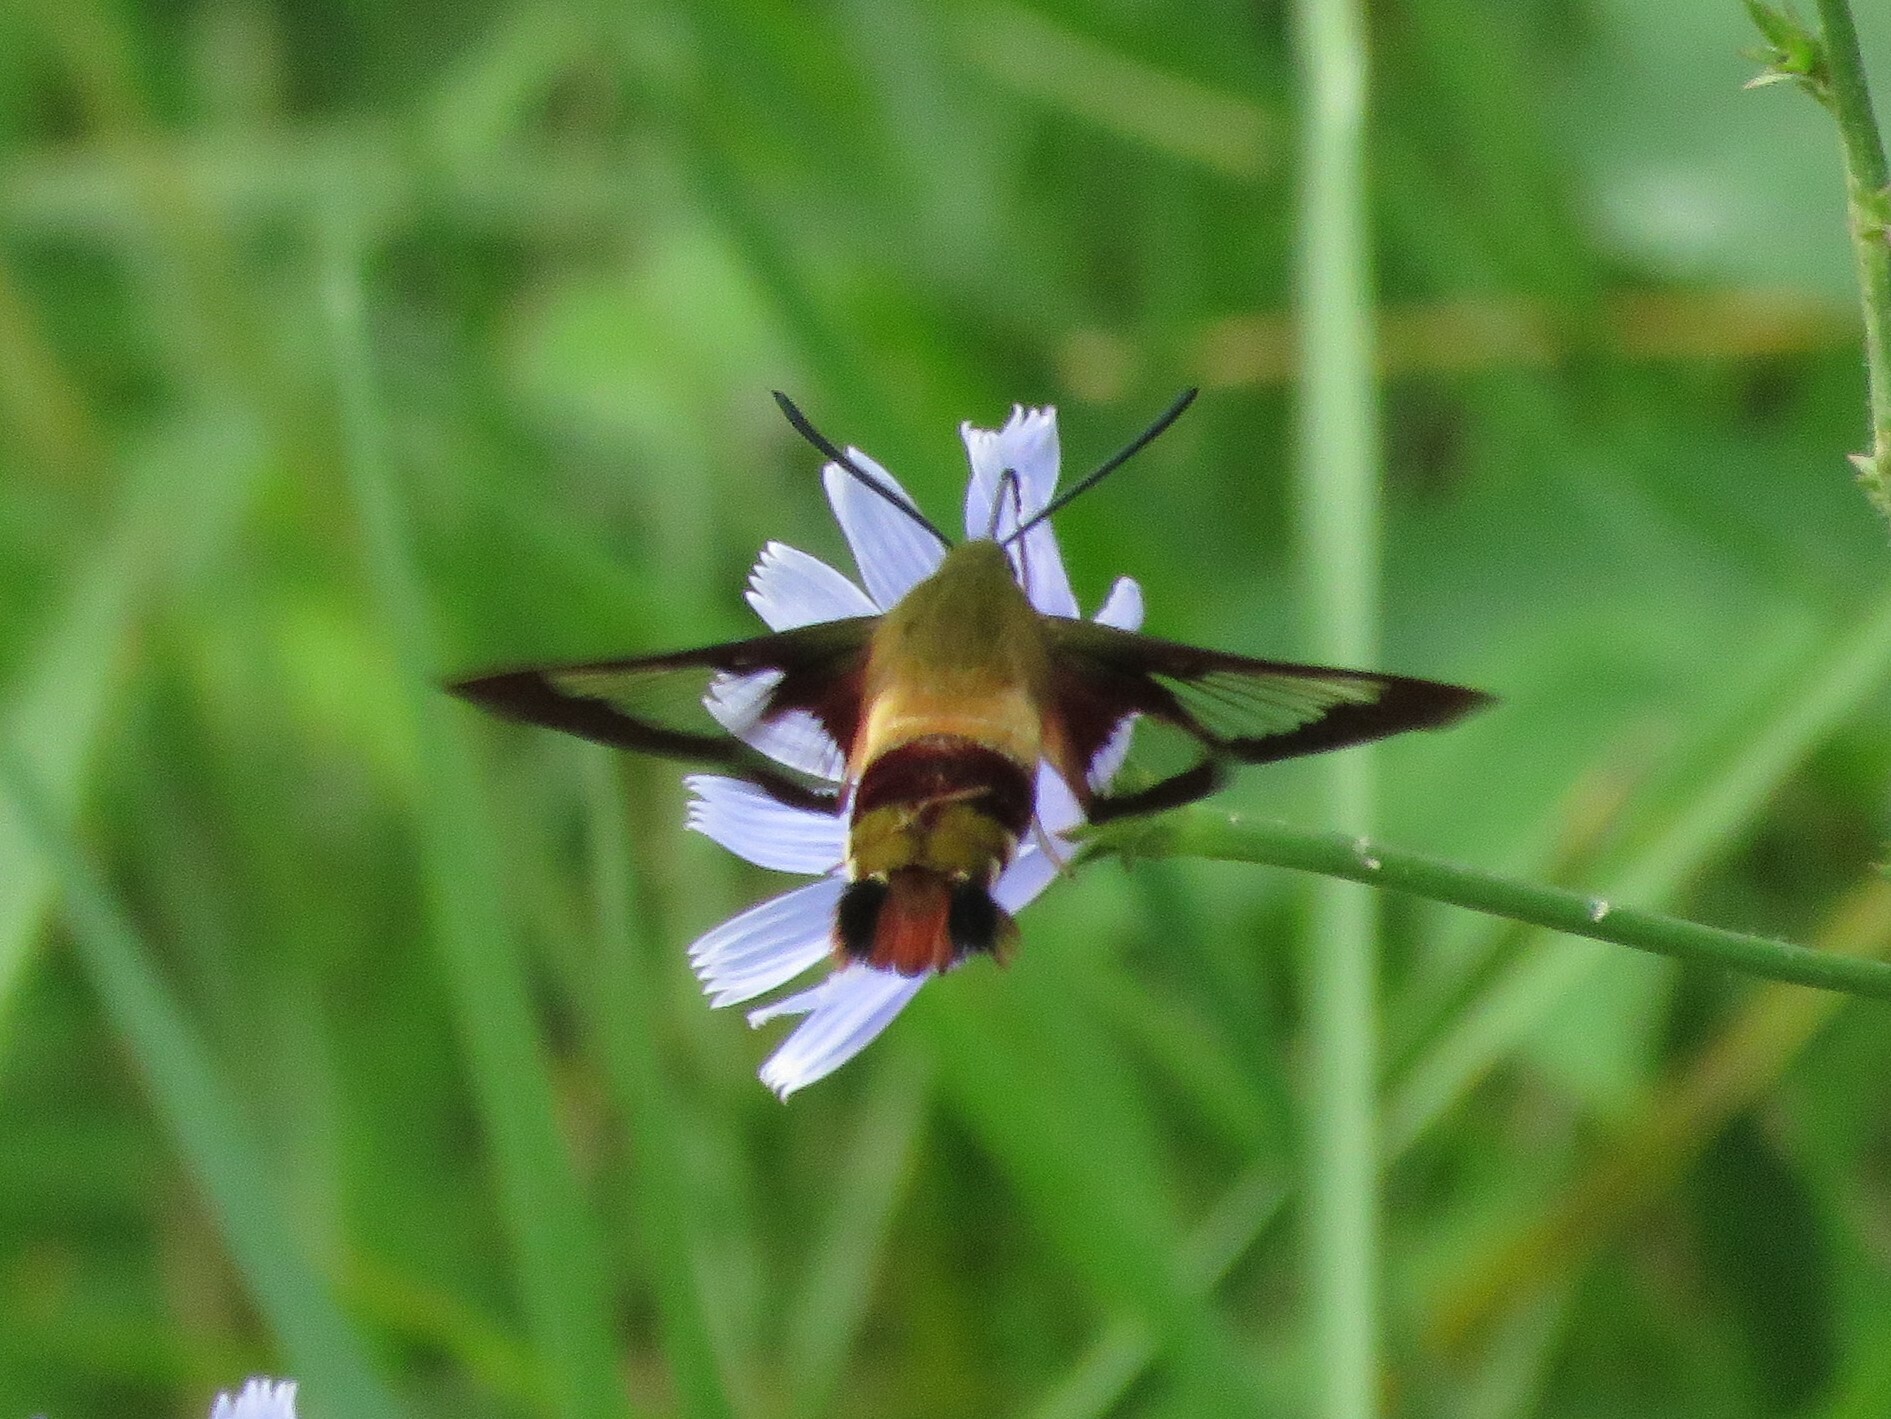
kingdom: Animalia
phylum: Arthropoda
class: Insecta
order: Lepidoptera
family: Sphingidae
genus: Hemaris
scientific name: Hemaris thysbe
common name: Common clear-wing
